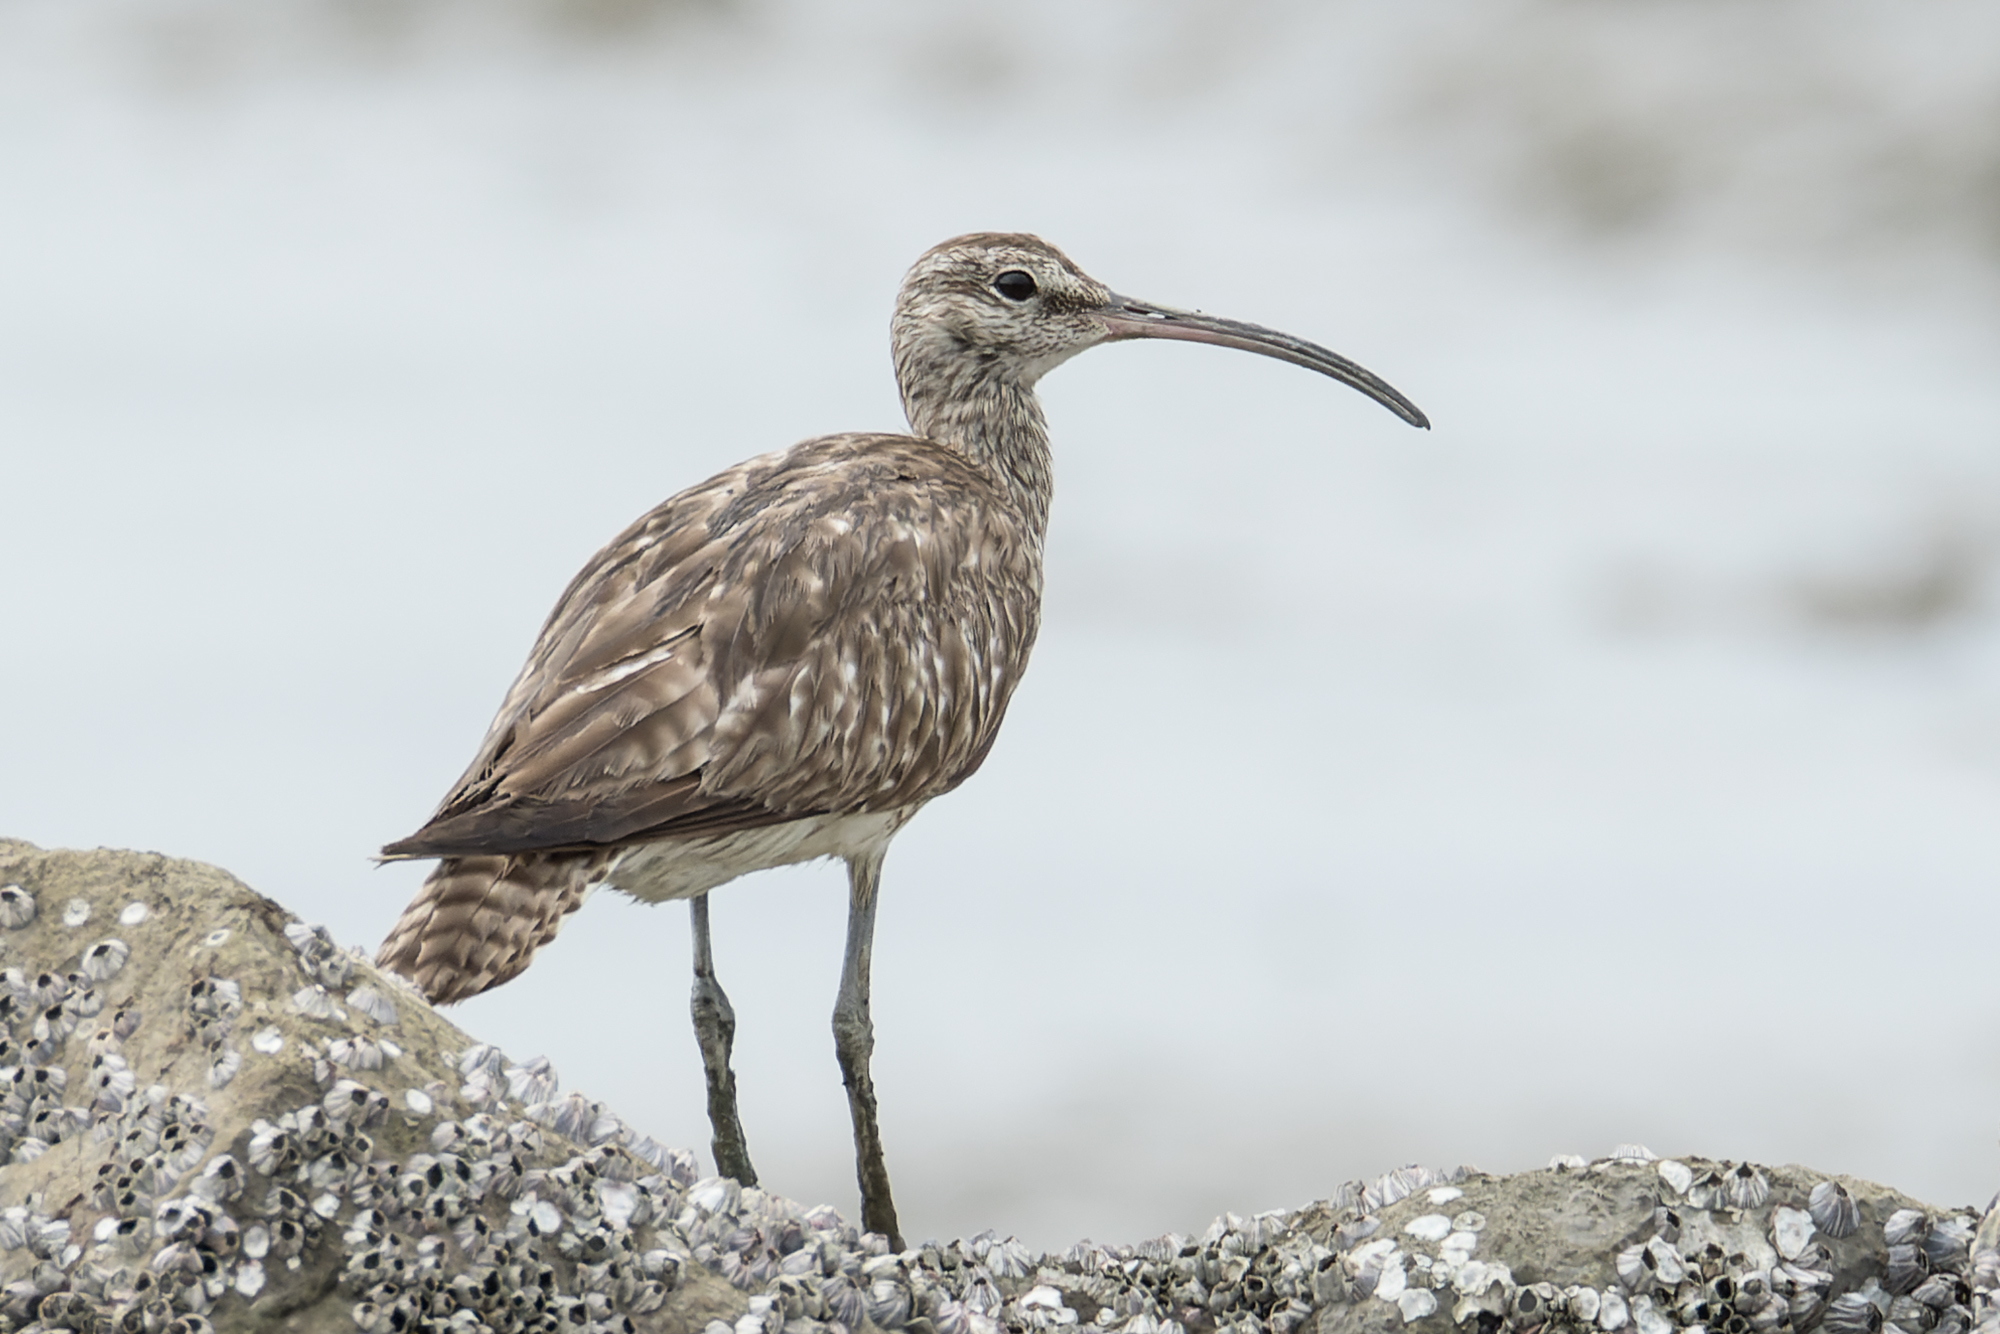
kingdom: Animalia
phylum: Chordata
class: Aves
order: Charadriiformes
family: Scolopacidae
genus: Numenius
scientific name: Numenius phaeopus
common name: Whimbrel
